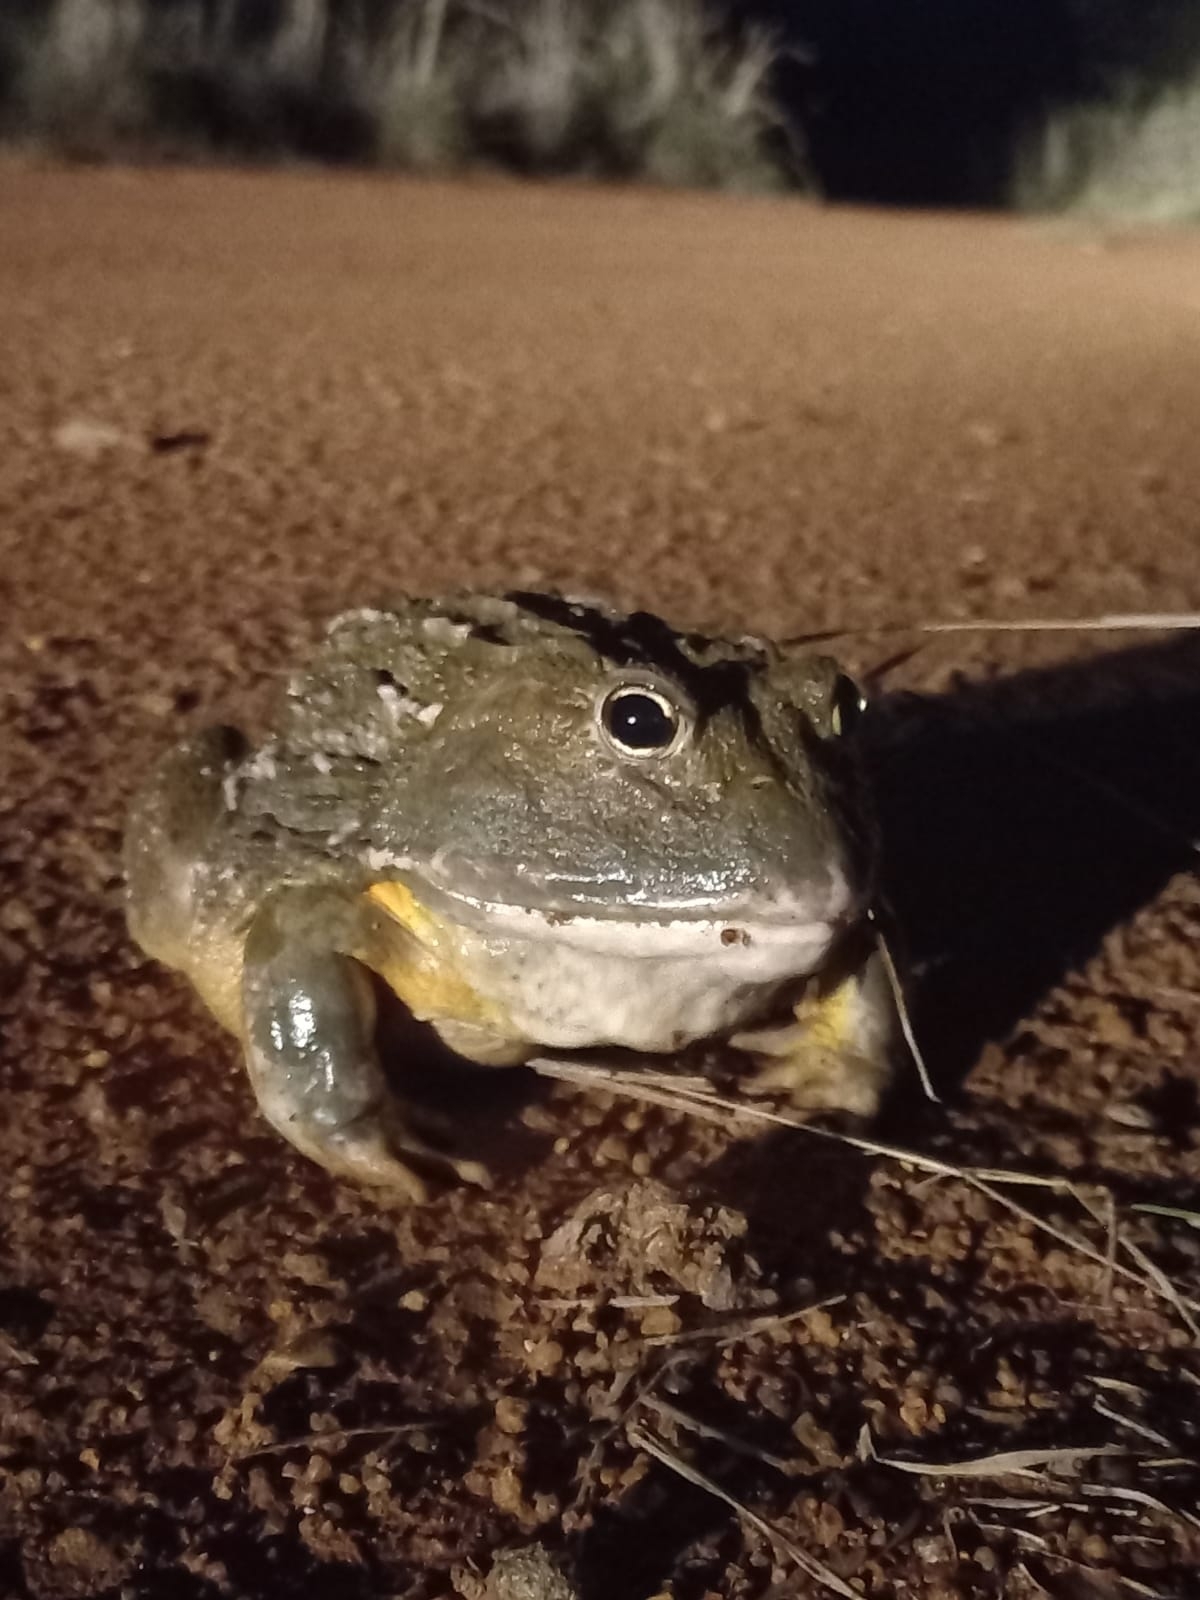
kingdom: Animalia
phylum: Chordata
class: Amphibia
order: Anura
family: Pyxicephalidae
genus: Pyxicephalus
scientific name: Pyxicephalus adspersus
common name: African bullfrog
